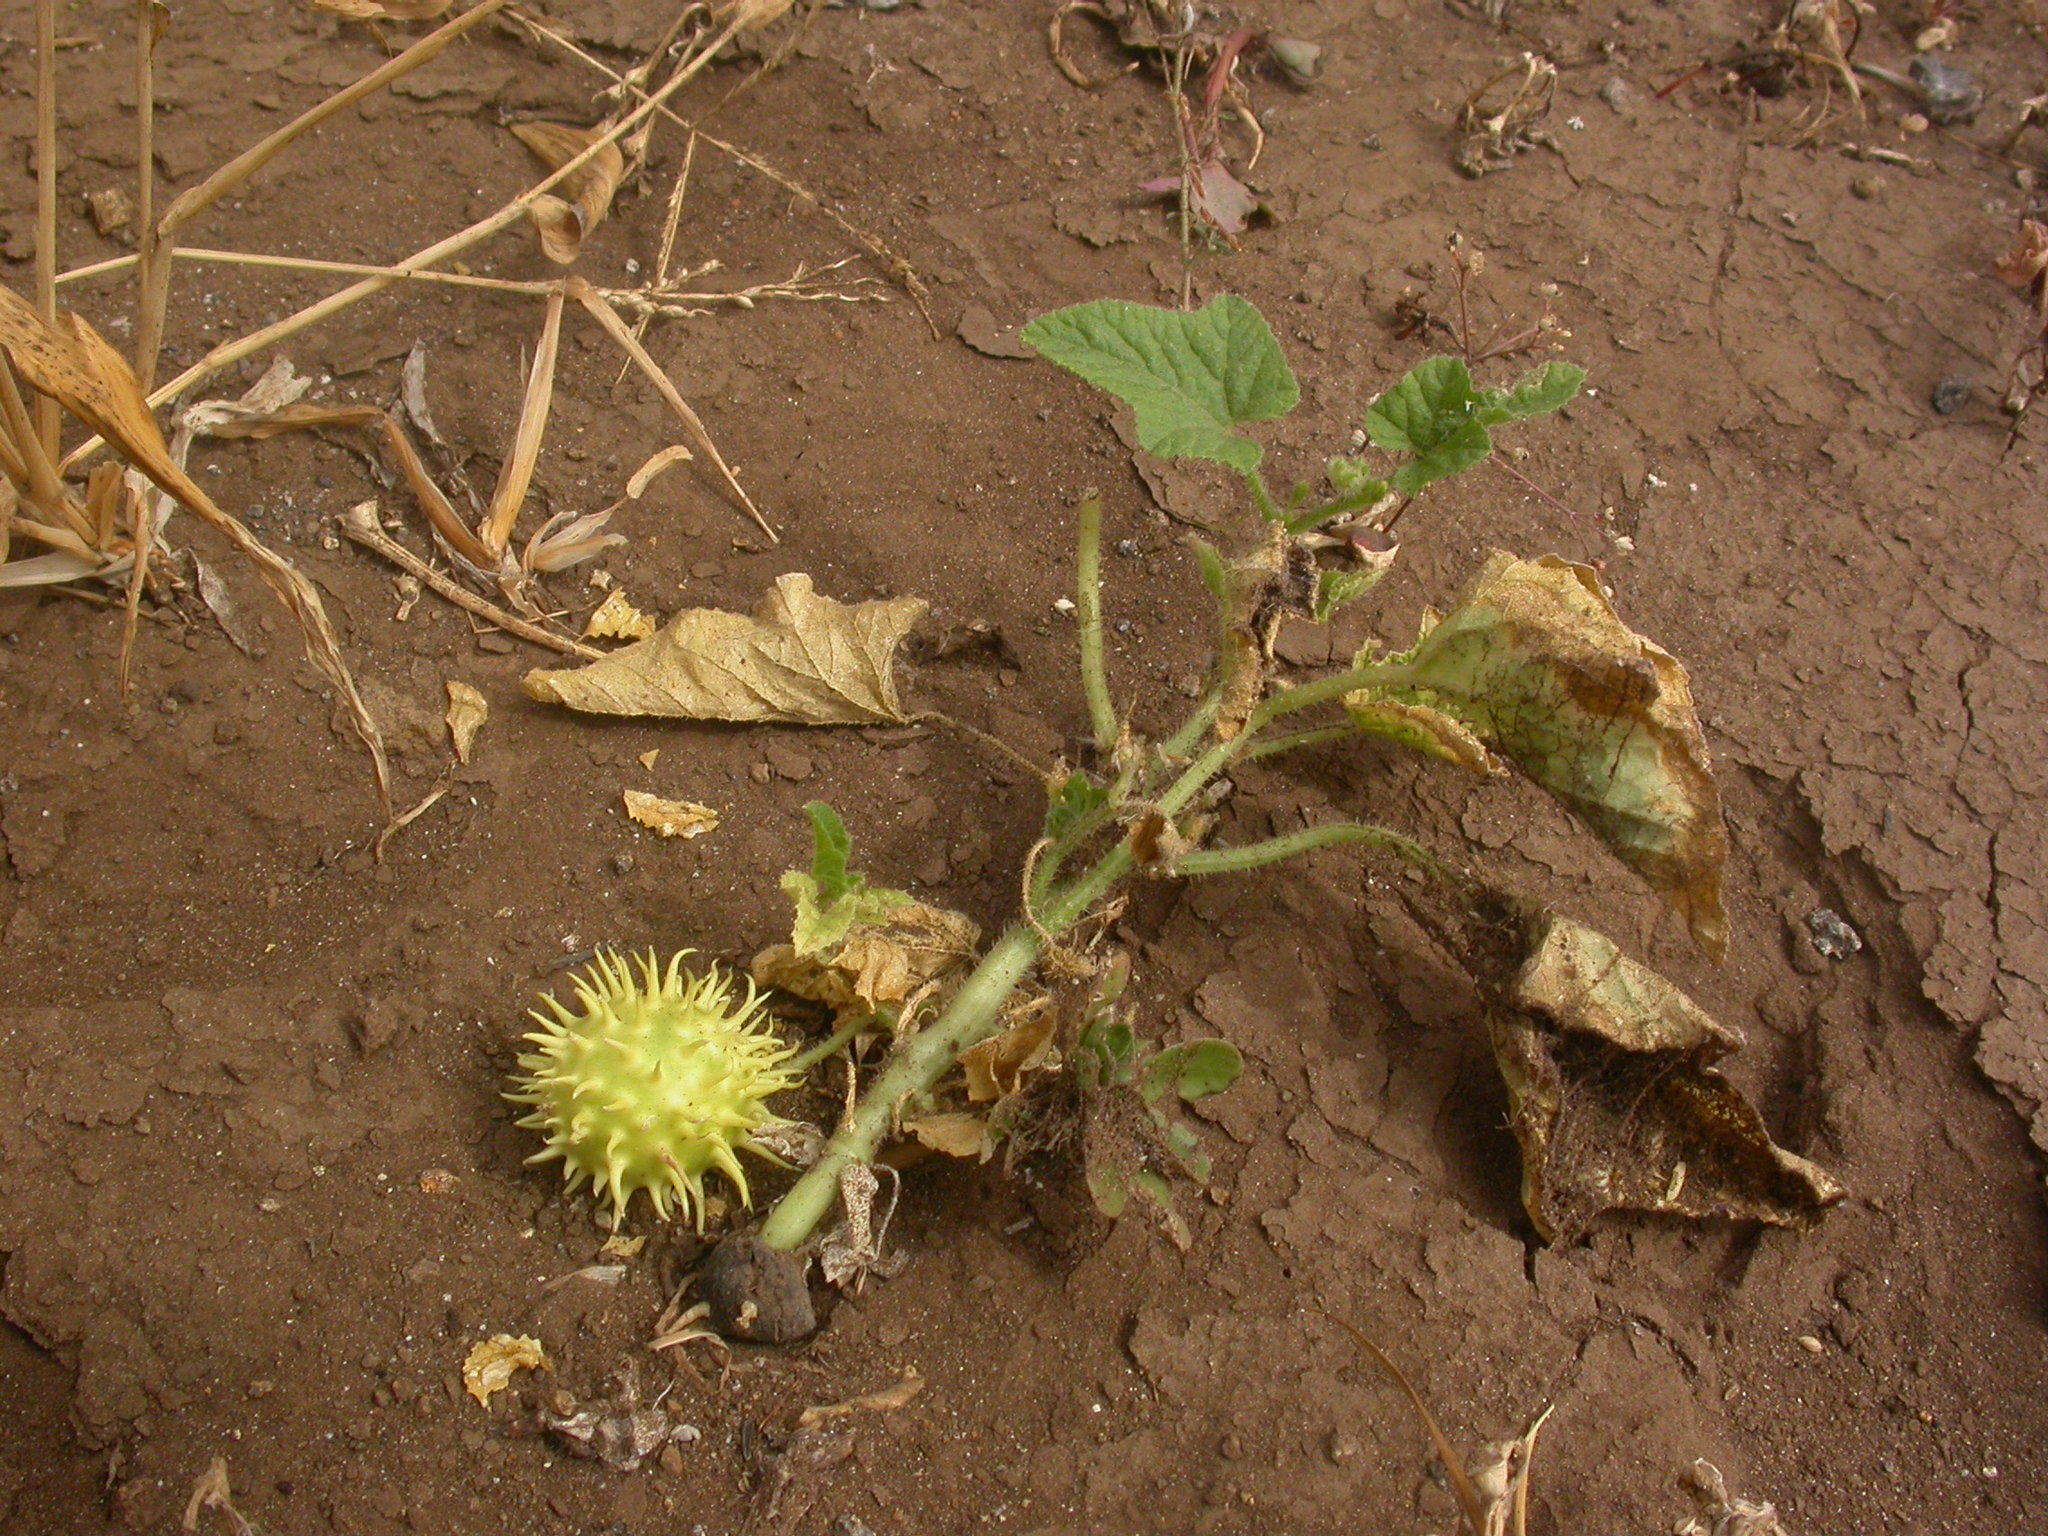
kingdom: Plantae
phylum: Tracheophyta
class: Magnoliopsida
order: Cucurbitales
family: Cucurbitaceae
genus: Cucumis
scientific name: Cucumis anguria
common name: West indian gherkin
